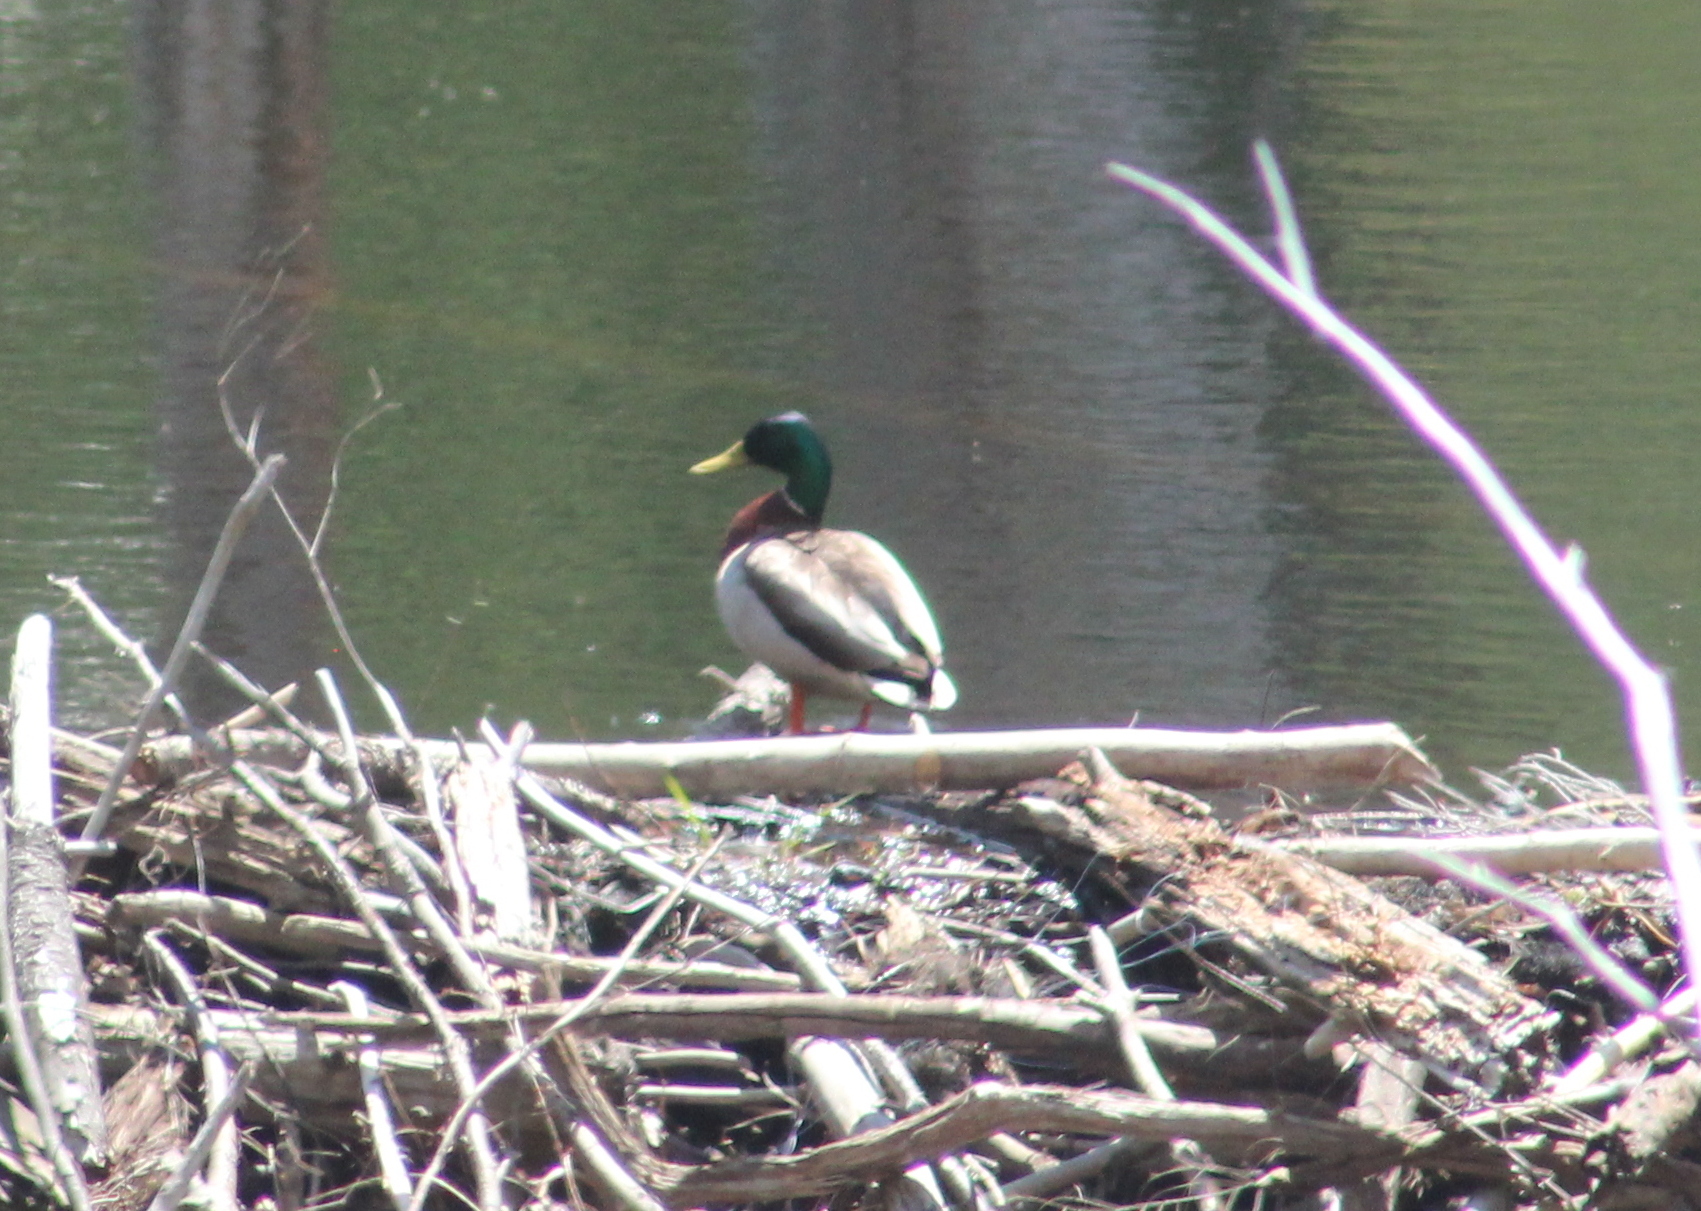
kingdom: Animalia
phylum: Chordata
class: Aves
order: Anseriformes
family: Anatidae
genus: Anas
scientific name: Anas platyrhynchos
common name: Mallard
